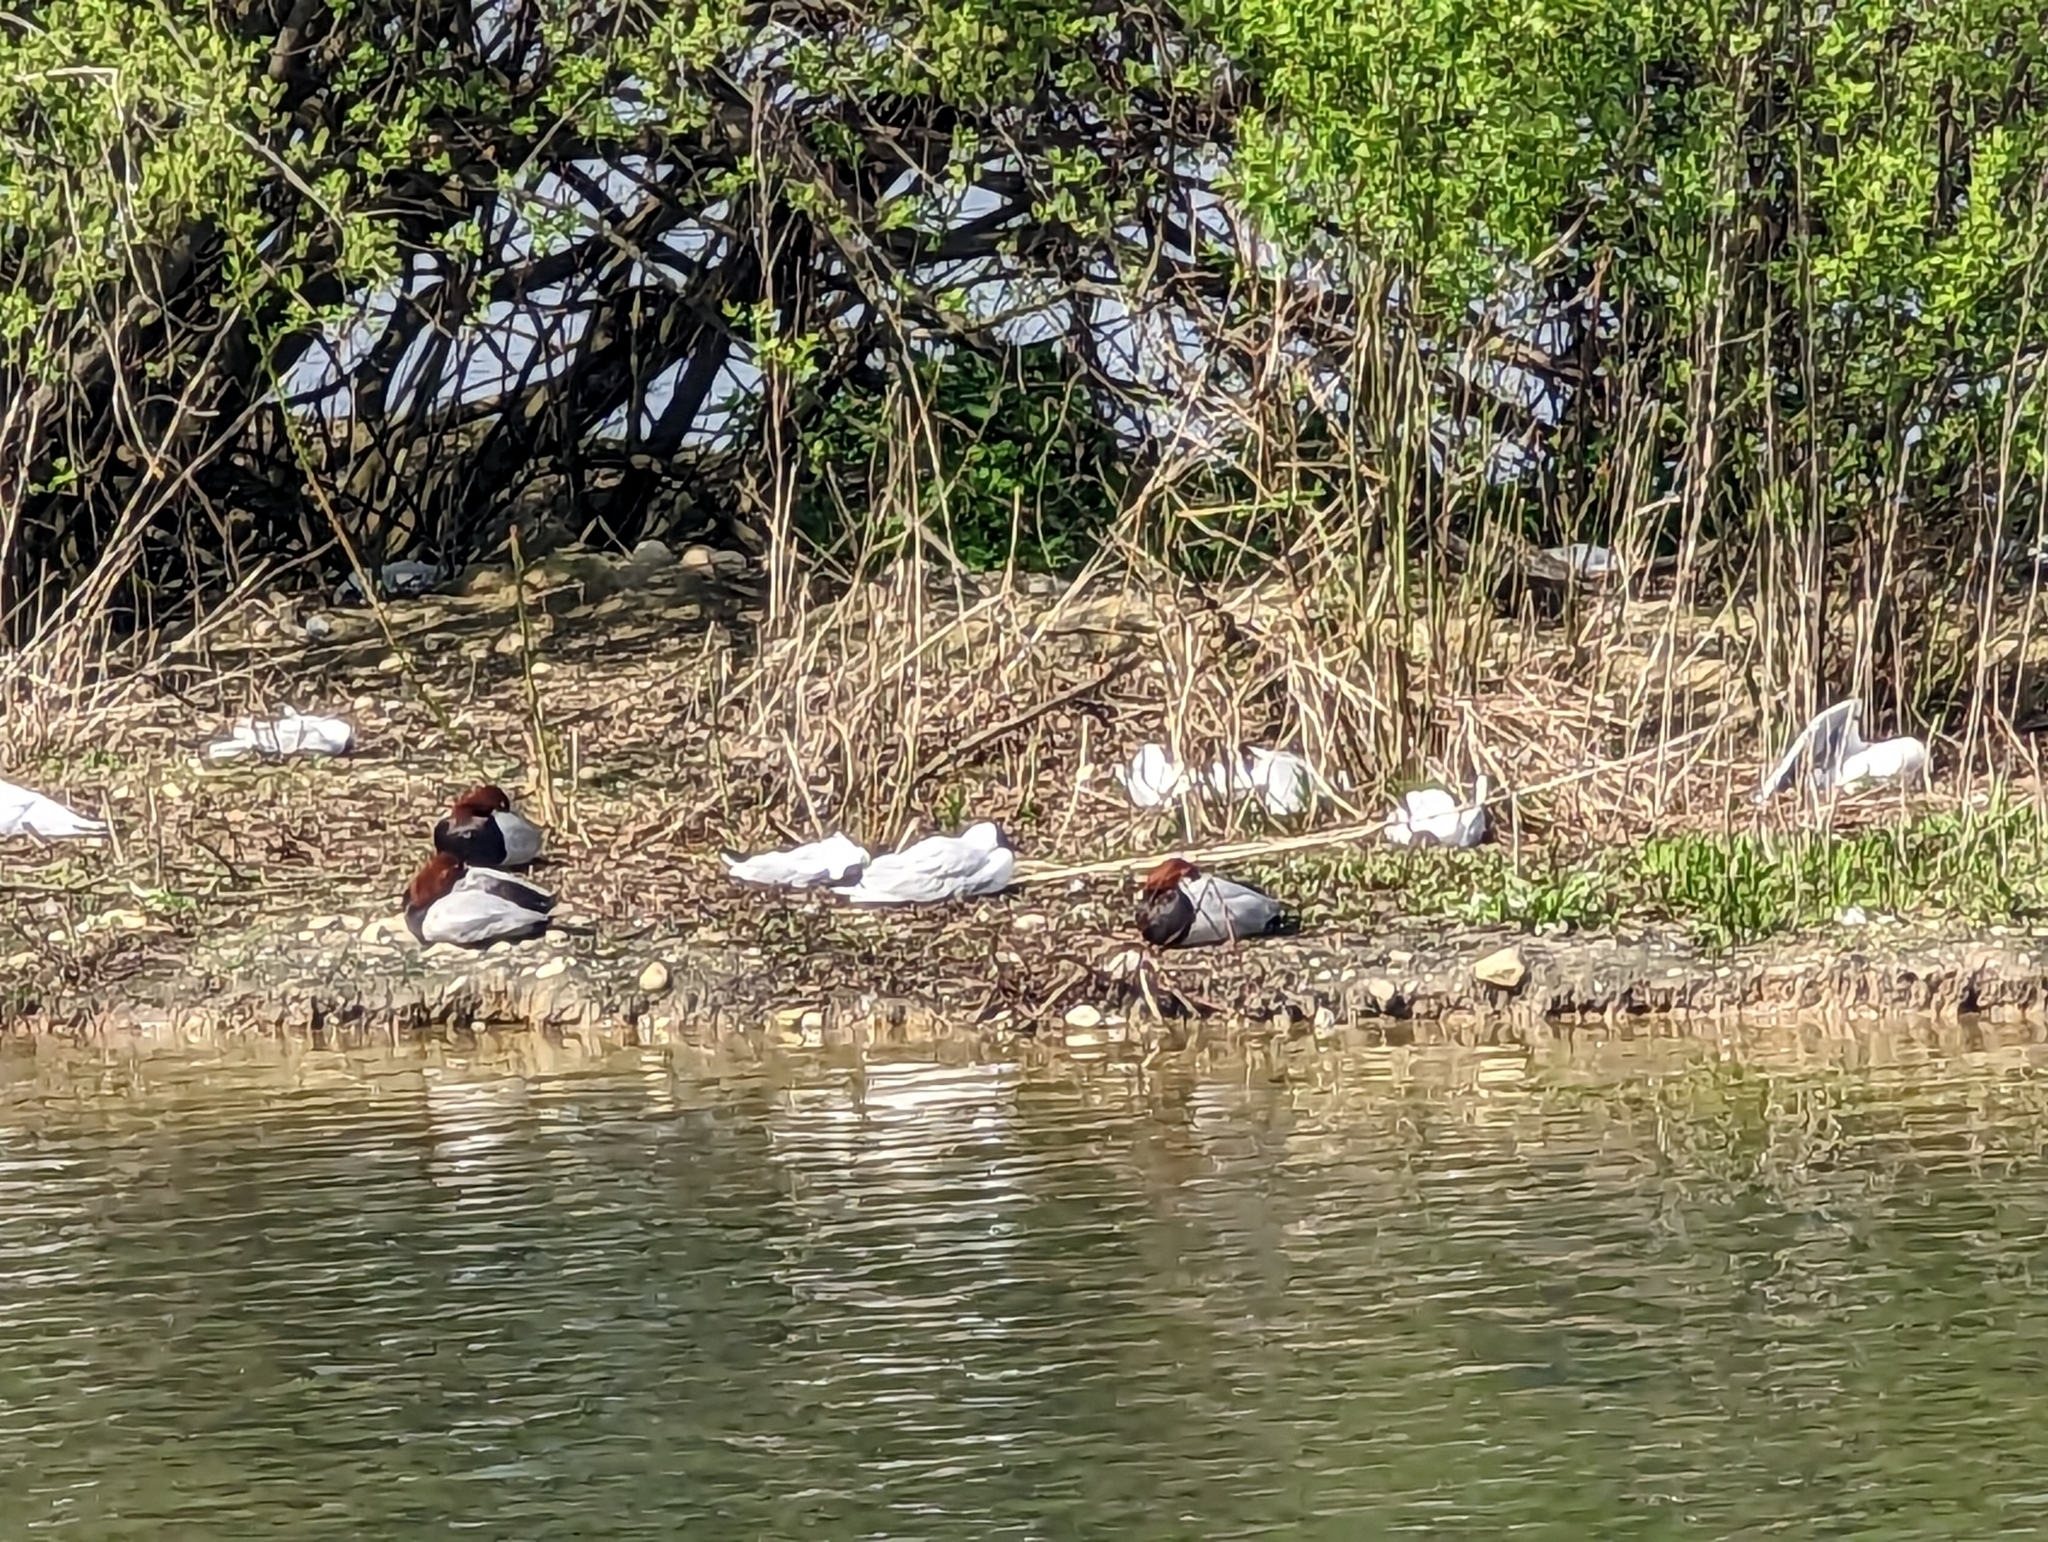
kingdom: Animalia
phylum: Chordata
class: Aves
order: Anseriformes
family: Anatidae
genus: Aythya
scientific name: Aythya ferina
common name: Common pochard
